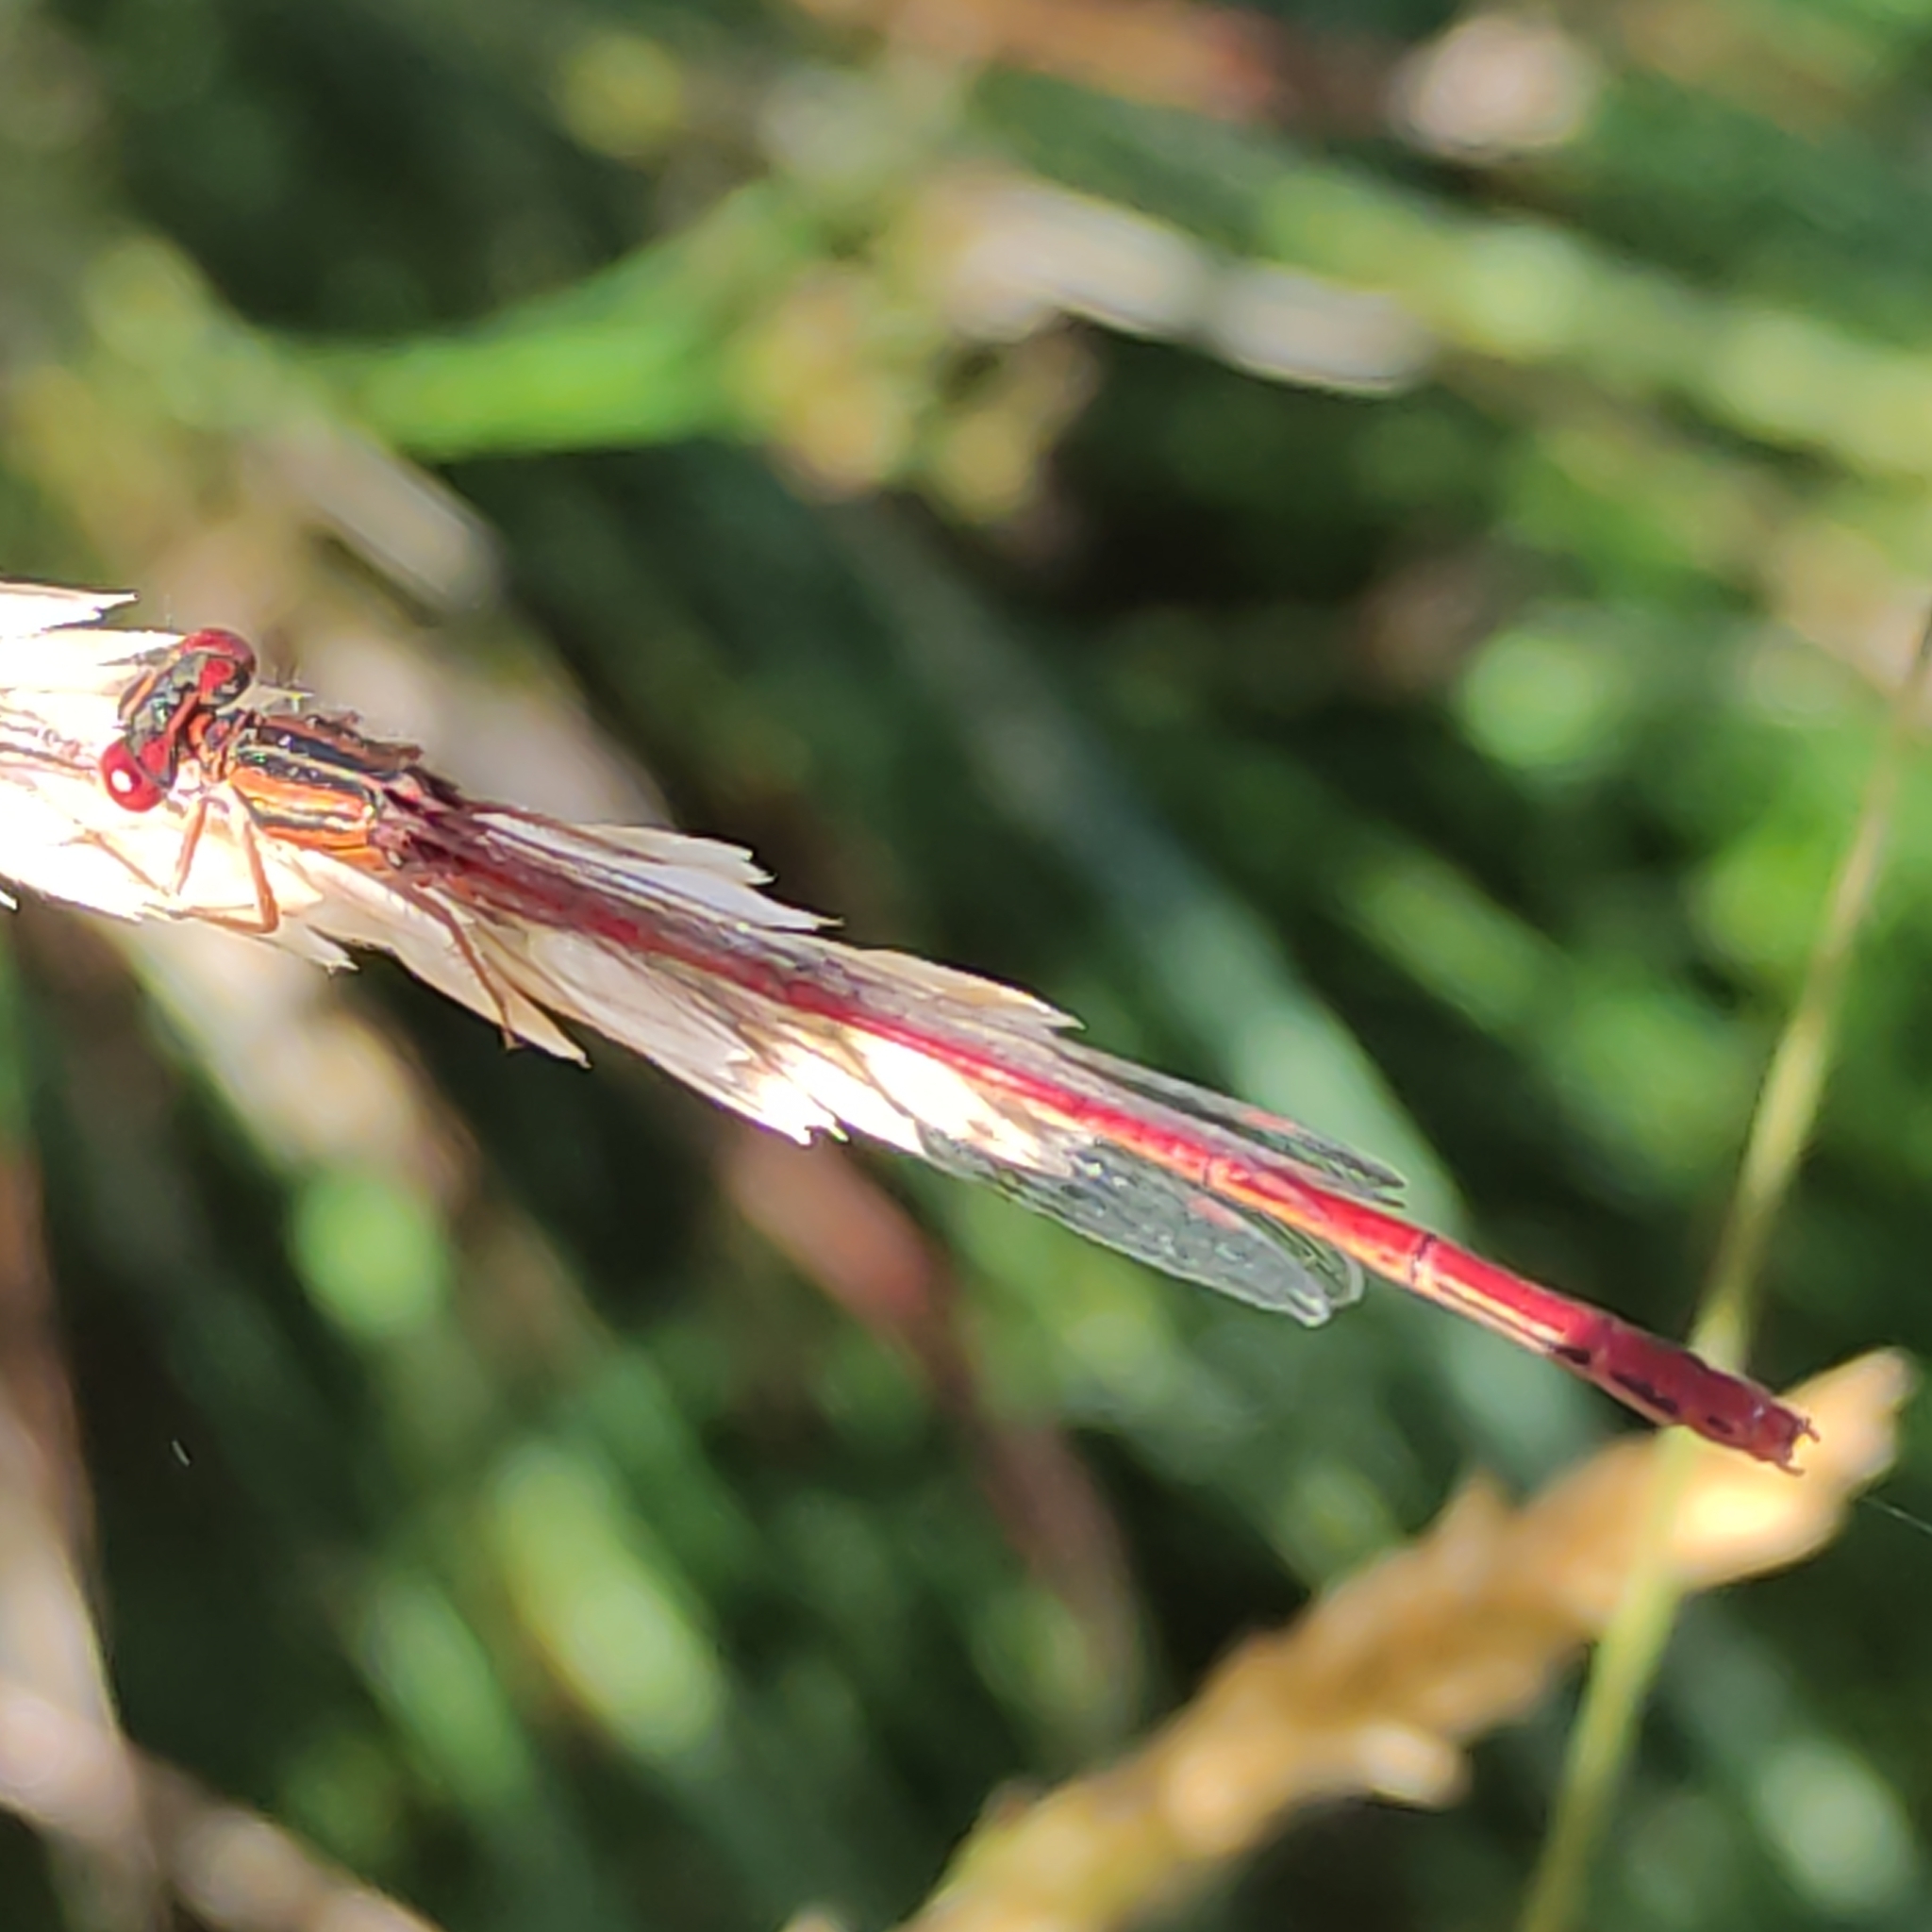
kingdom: Animalia
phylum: Arthropoda
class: Insecta
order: Odonata
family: Coenagrionidae
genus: Xanthocnemis
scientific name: Xanthocnemis zealandica
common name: Common redcoat damselfly
